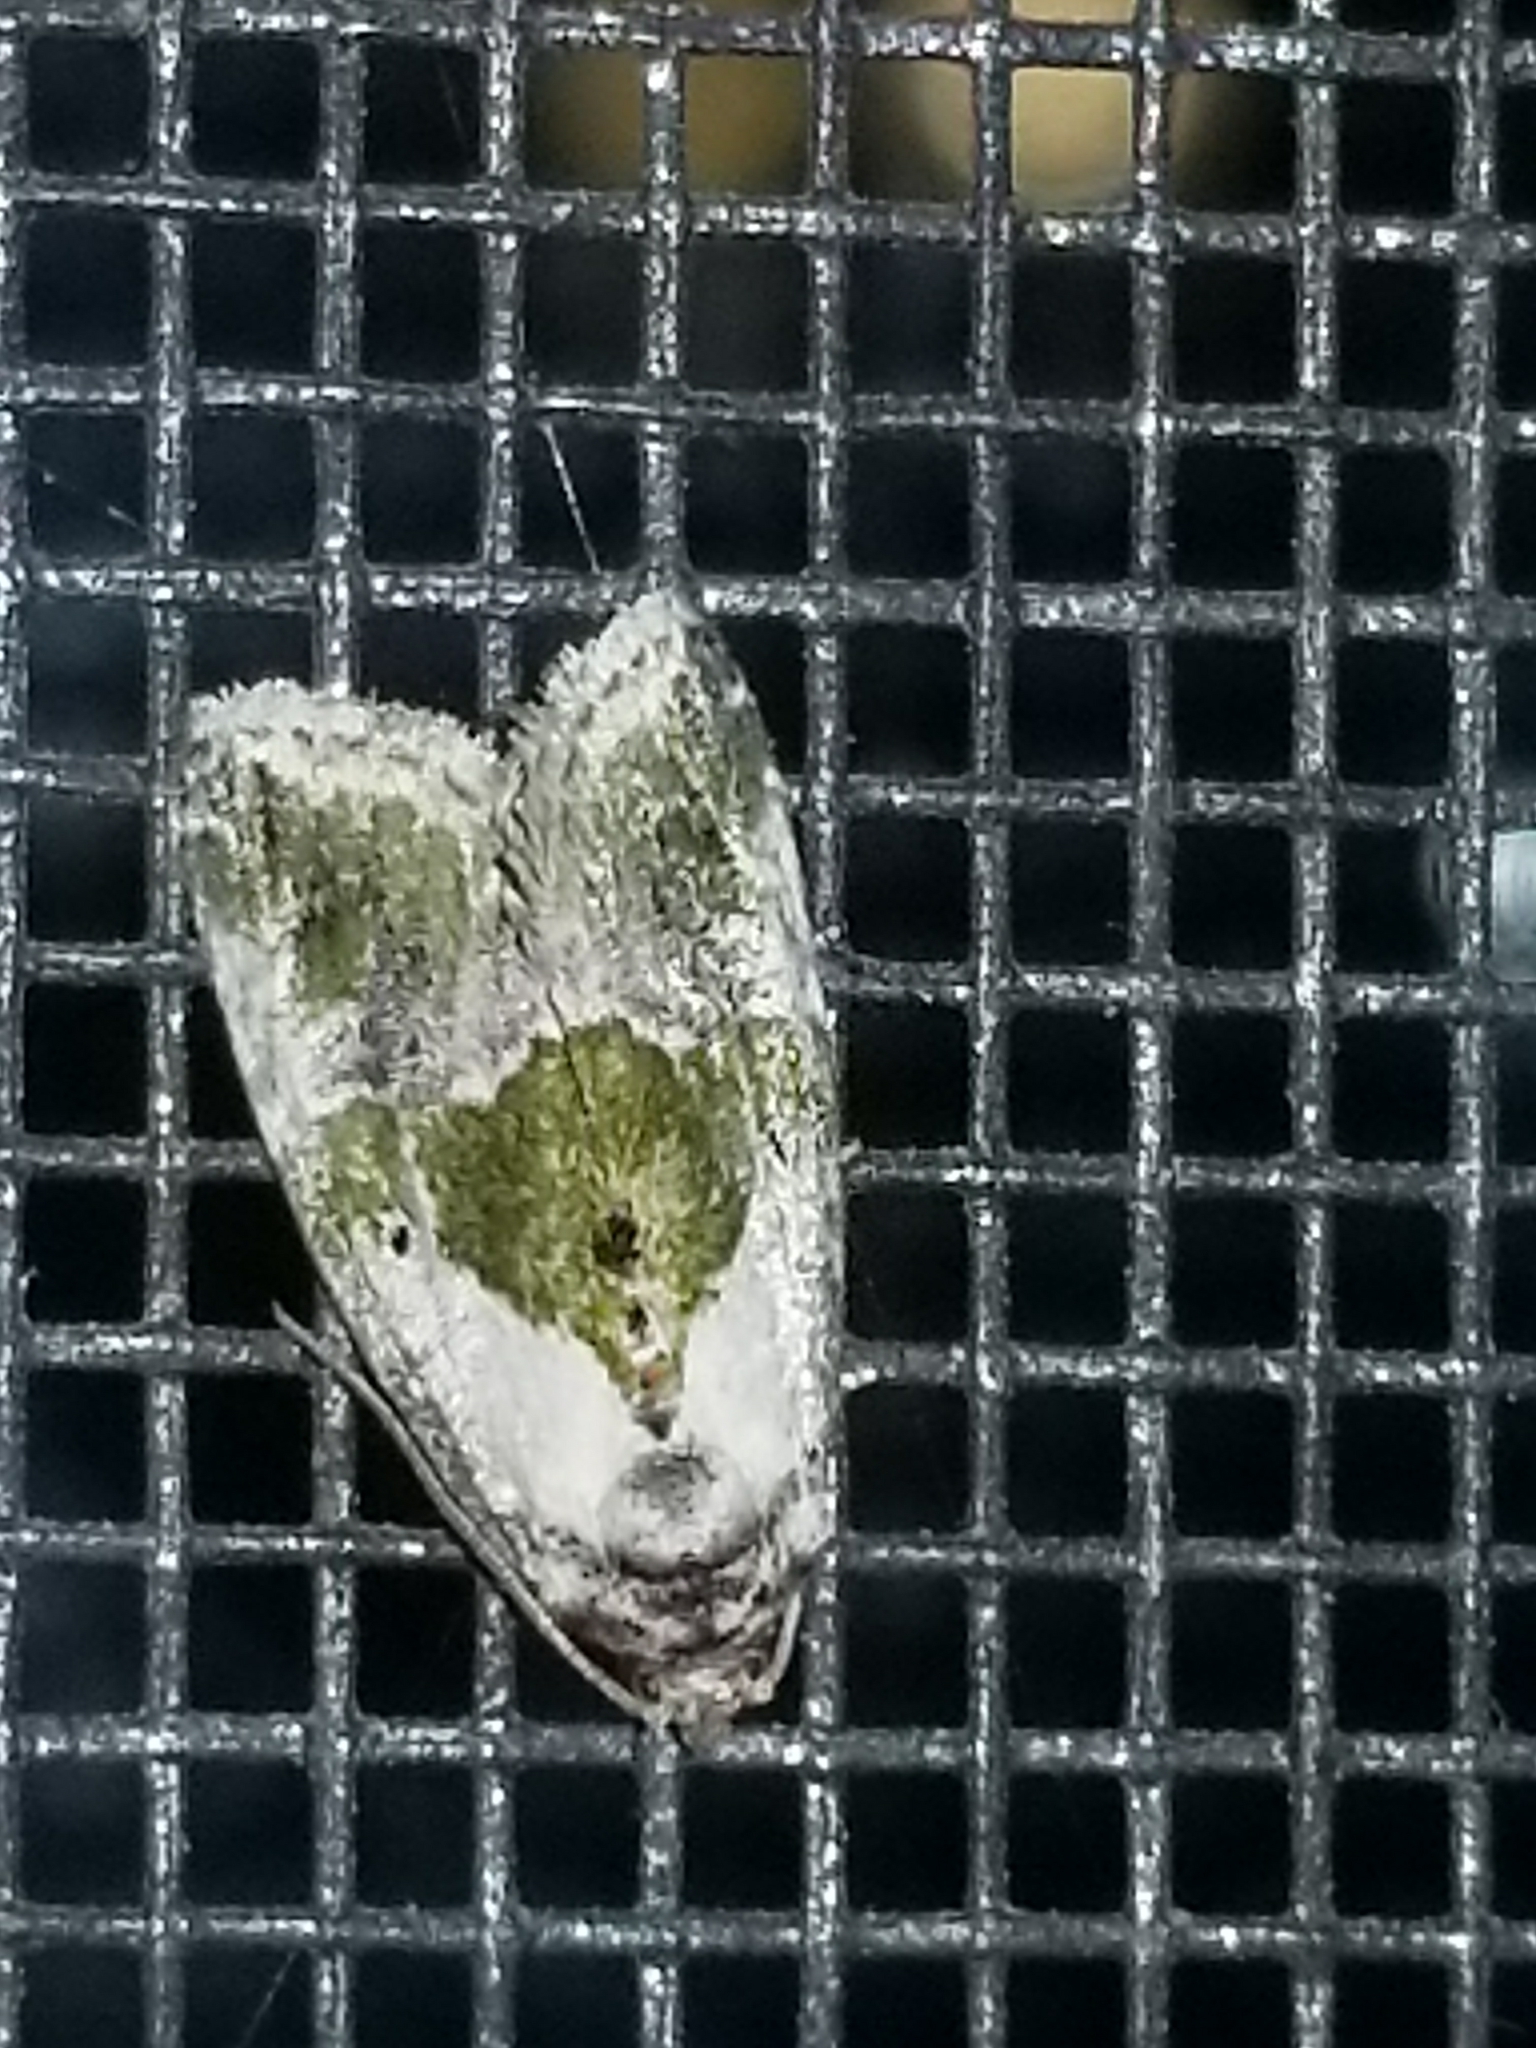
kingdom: Animalia
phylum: Arthropoda
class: Insecta
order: Lepidoptera
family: Noctuidae
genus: Maliattha
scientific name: Maliattha synochitis
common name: Black-dotted glyph
